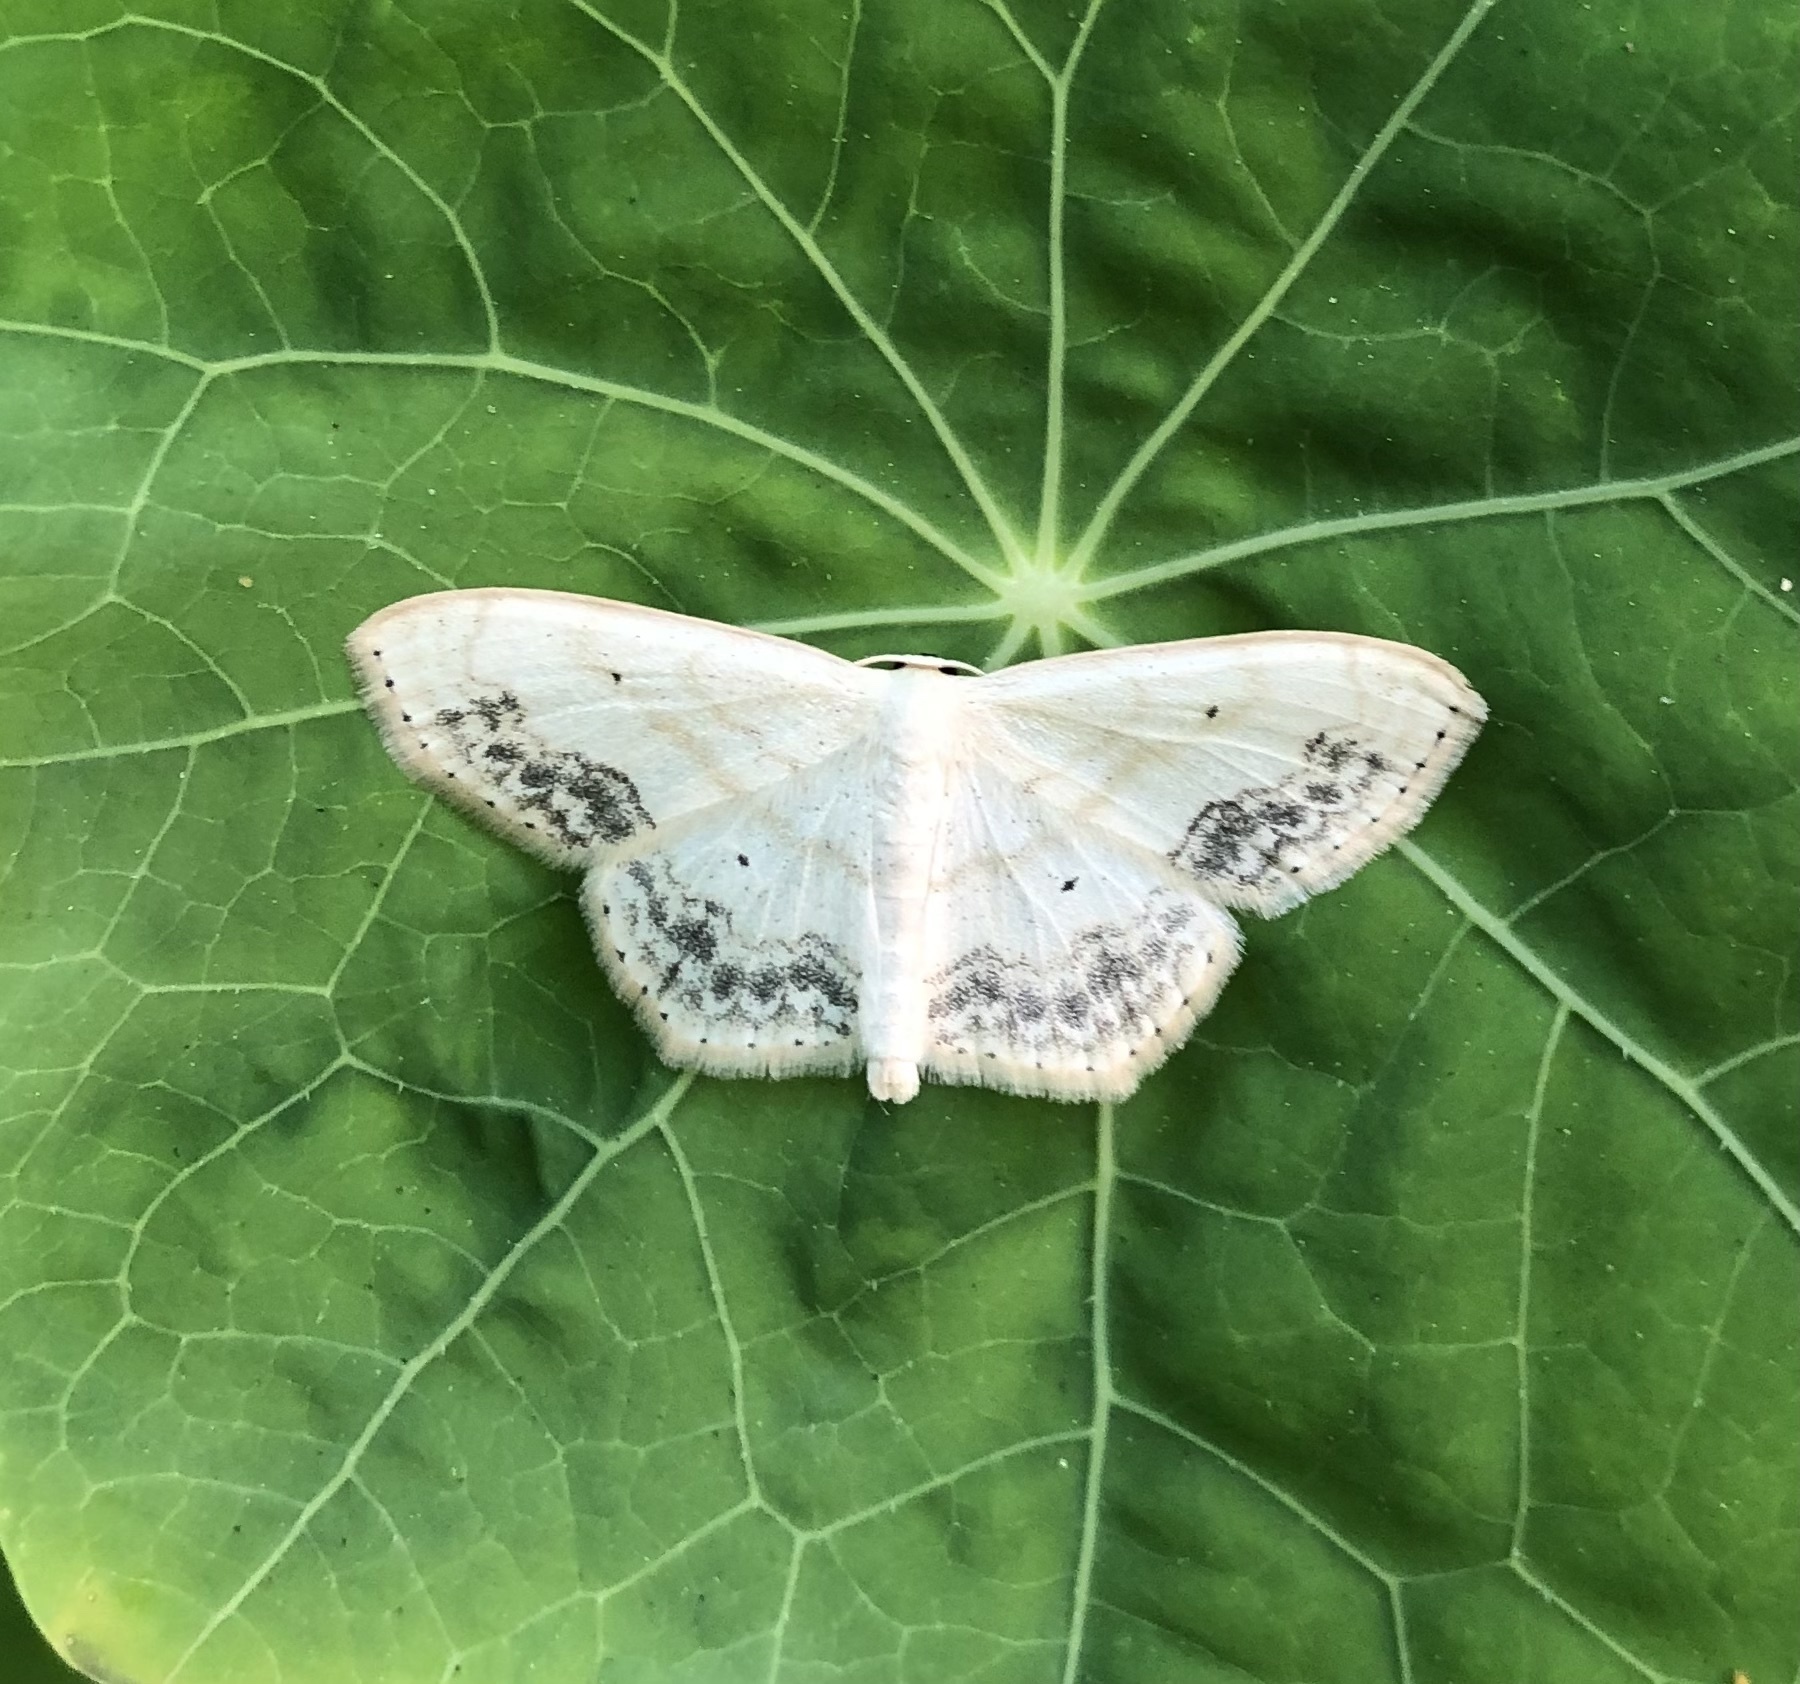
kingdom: Animalia
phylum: Arthropoda
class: Insecta
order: Lepidoptera
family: Geometridae
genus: Scopula
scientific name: Scopula limboundata
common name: Large lace border
